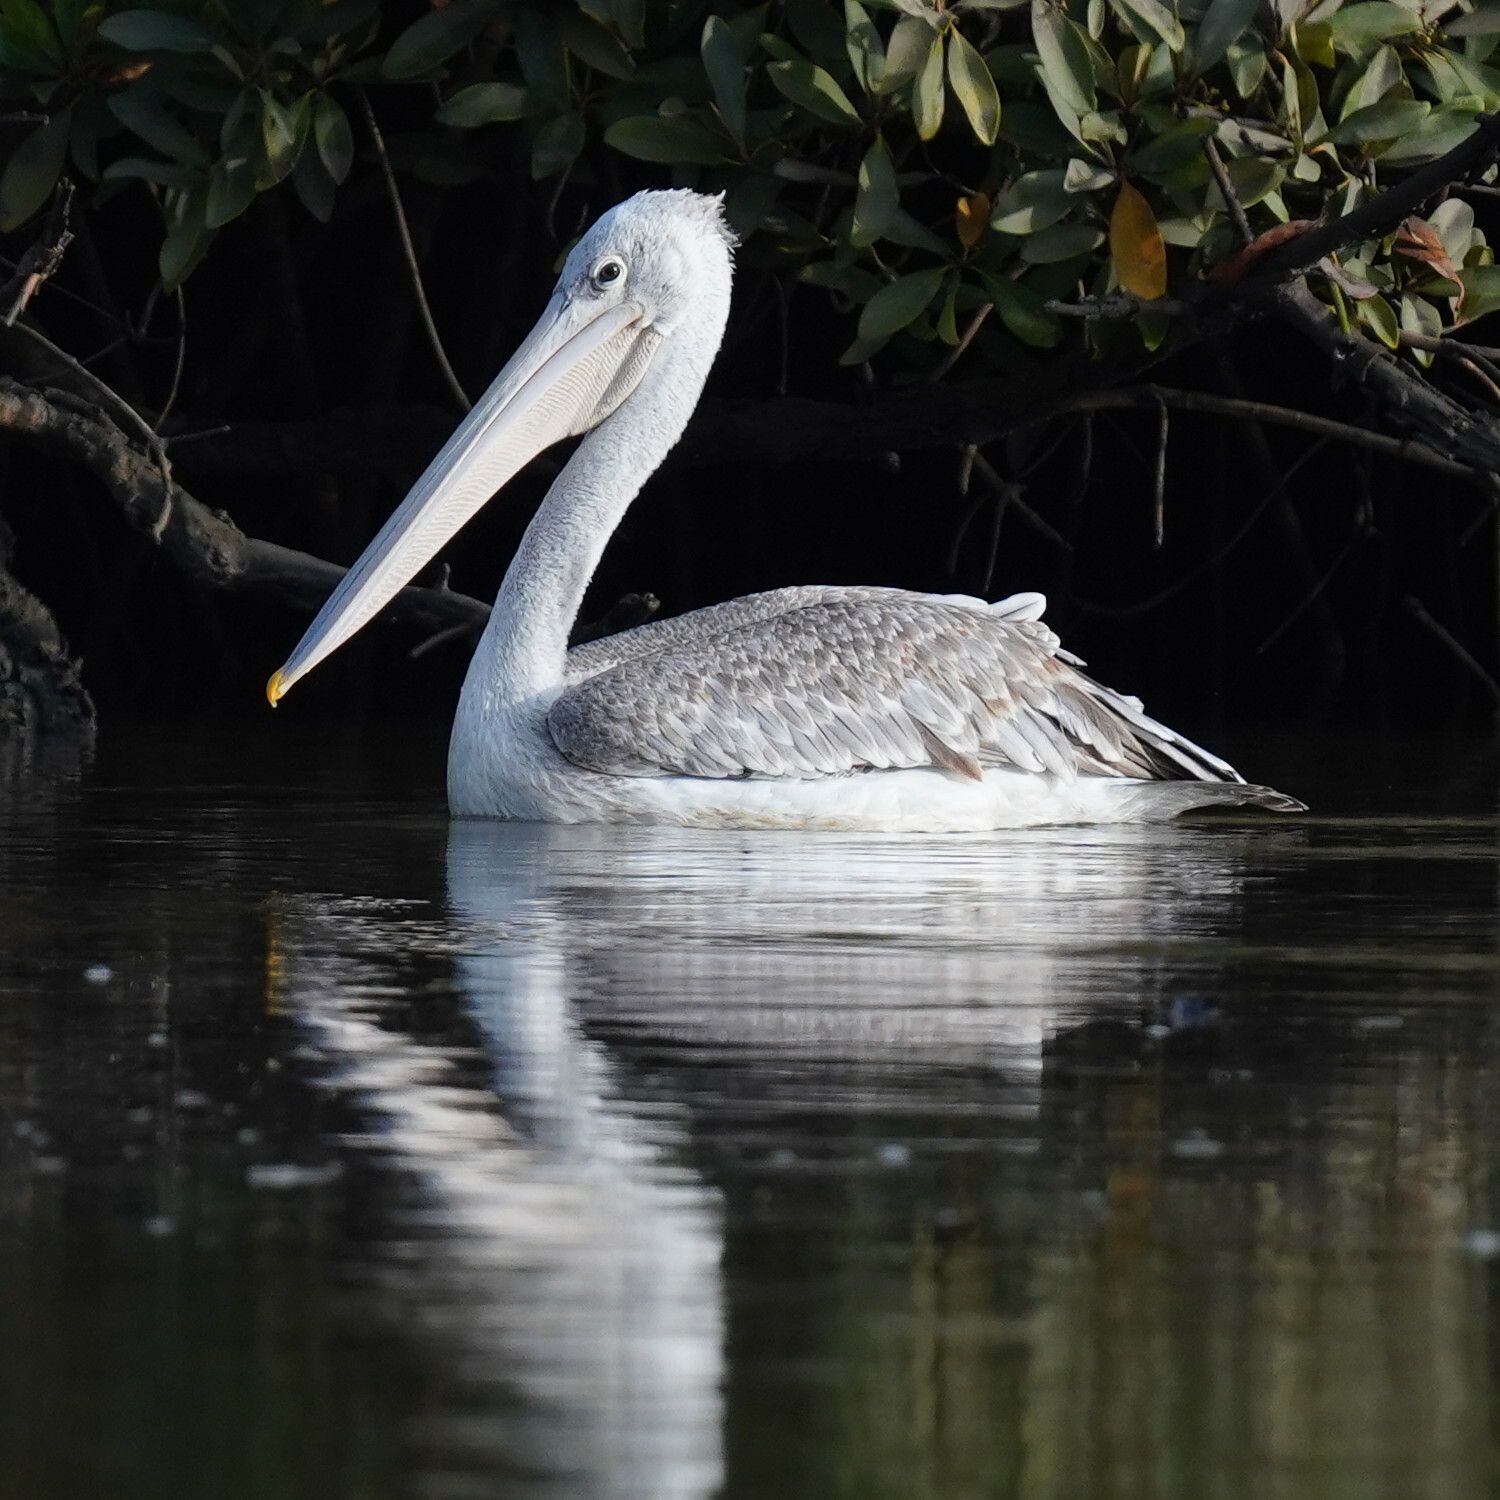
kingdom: Animalia
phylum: Chordata
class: Aves
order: Pelecaniformes
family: Pelecanidae
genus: Pelecanus
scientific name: Pelecanus rufescens
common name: Pink-backed pelican
